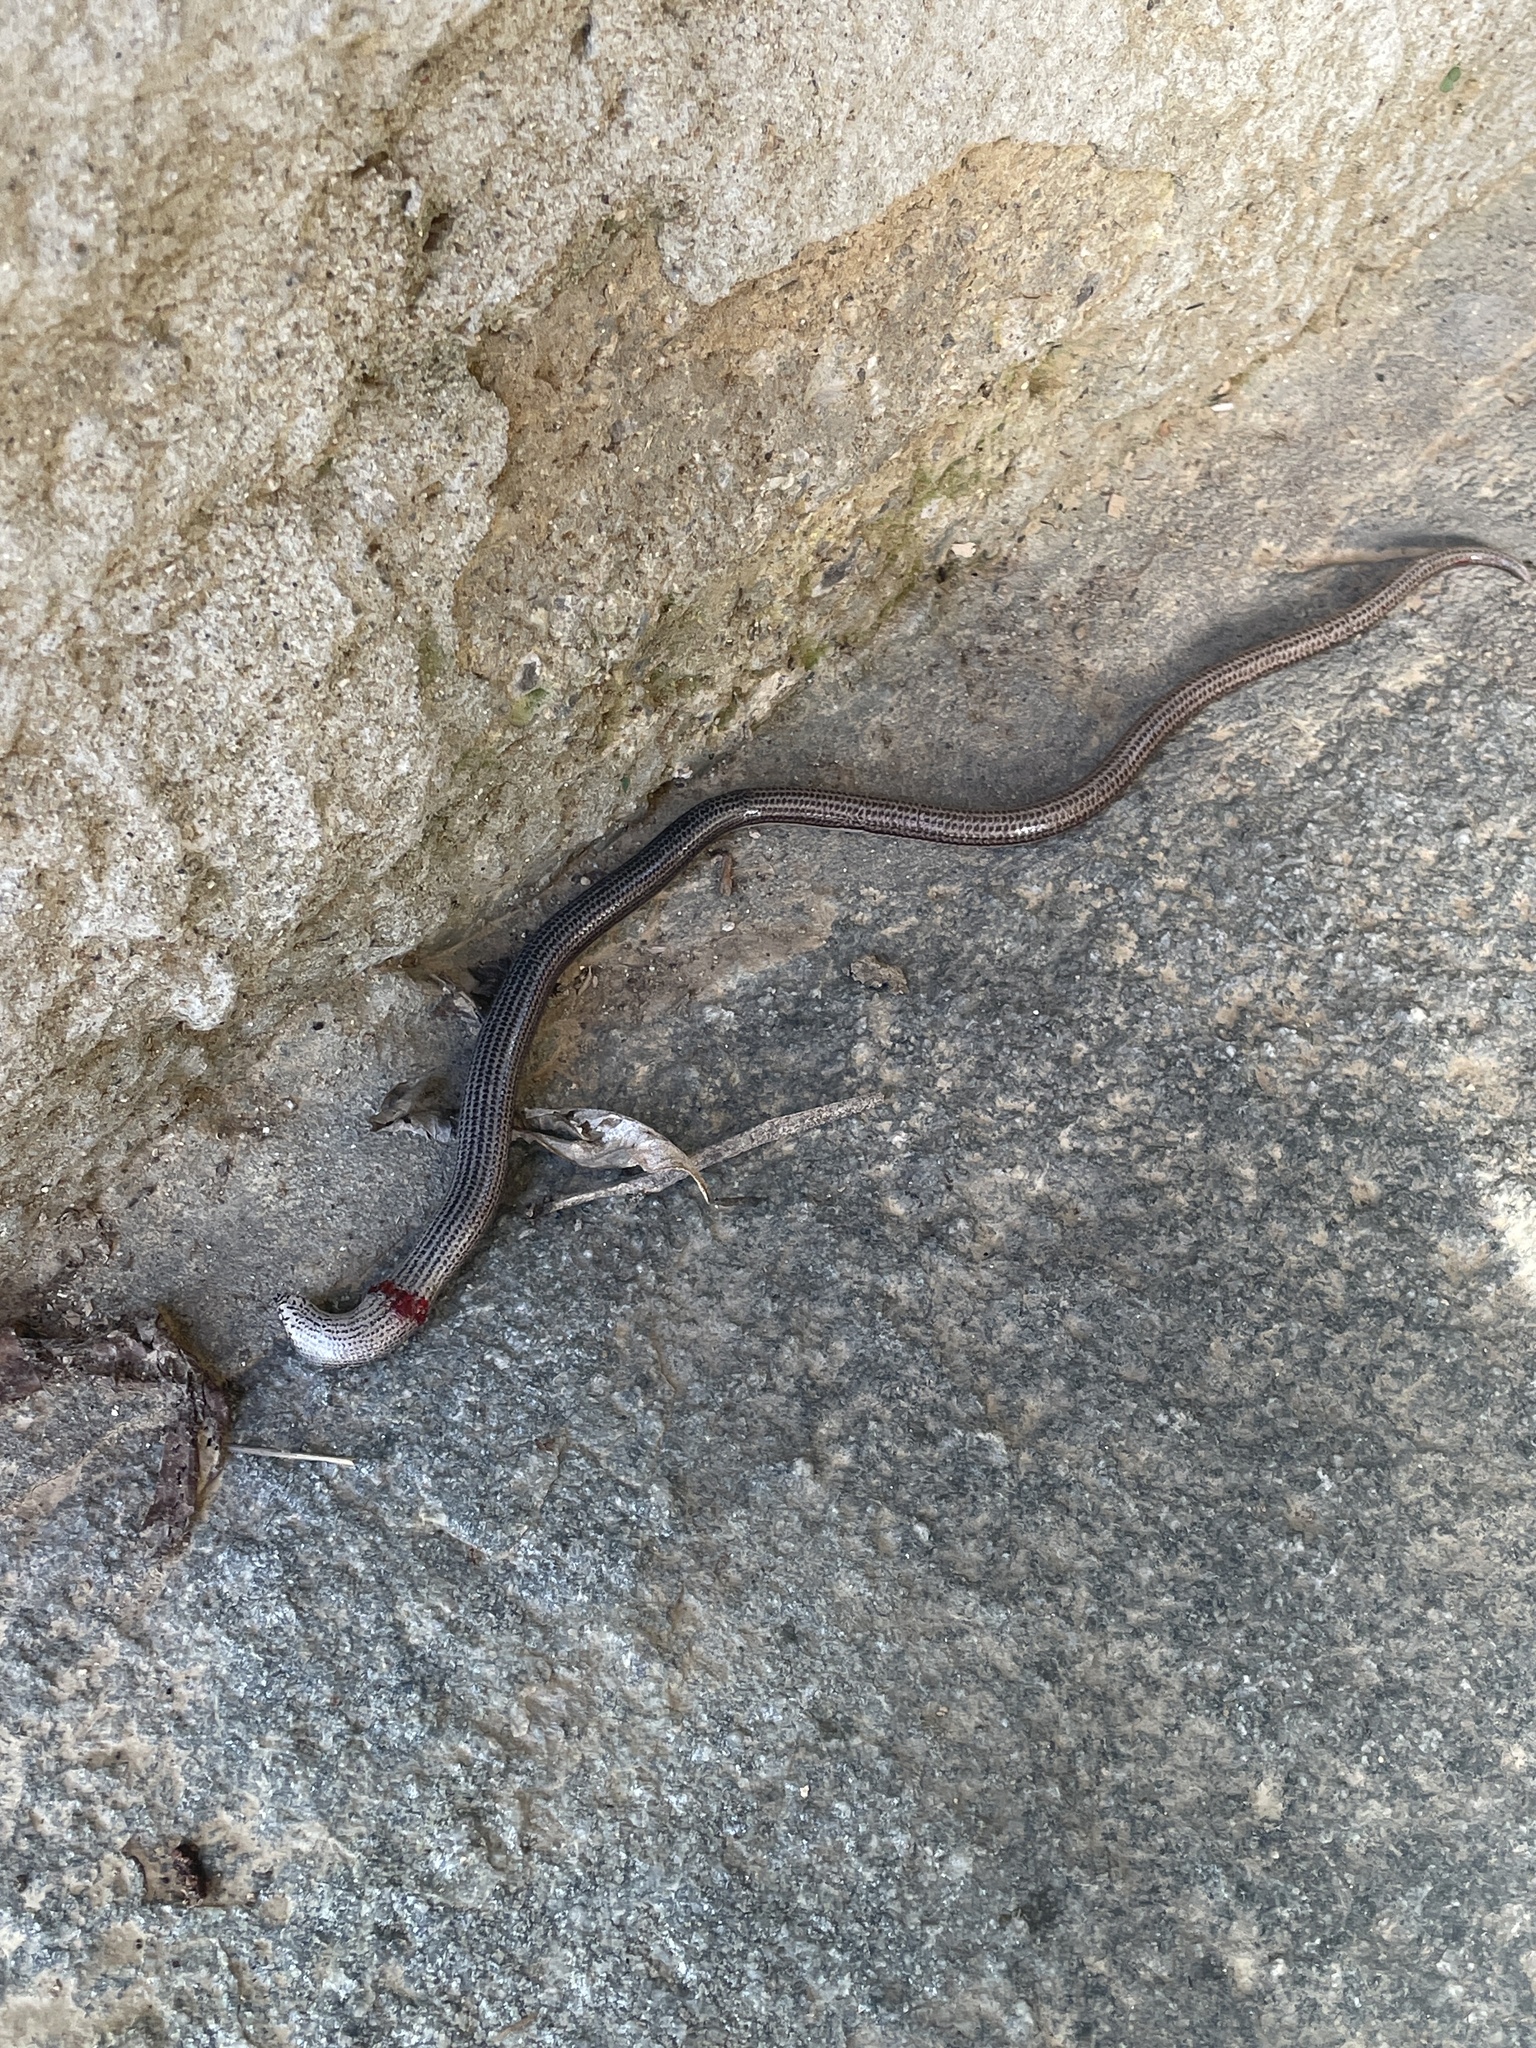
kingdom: Animalia
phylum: Chordata
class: Squamata
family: Anguidae
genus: Anguis
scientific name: Anguis veronensis
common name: Italian slow worm
